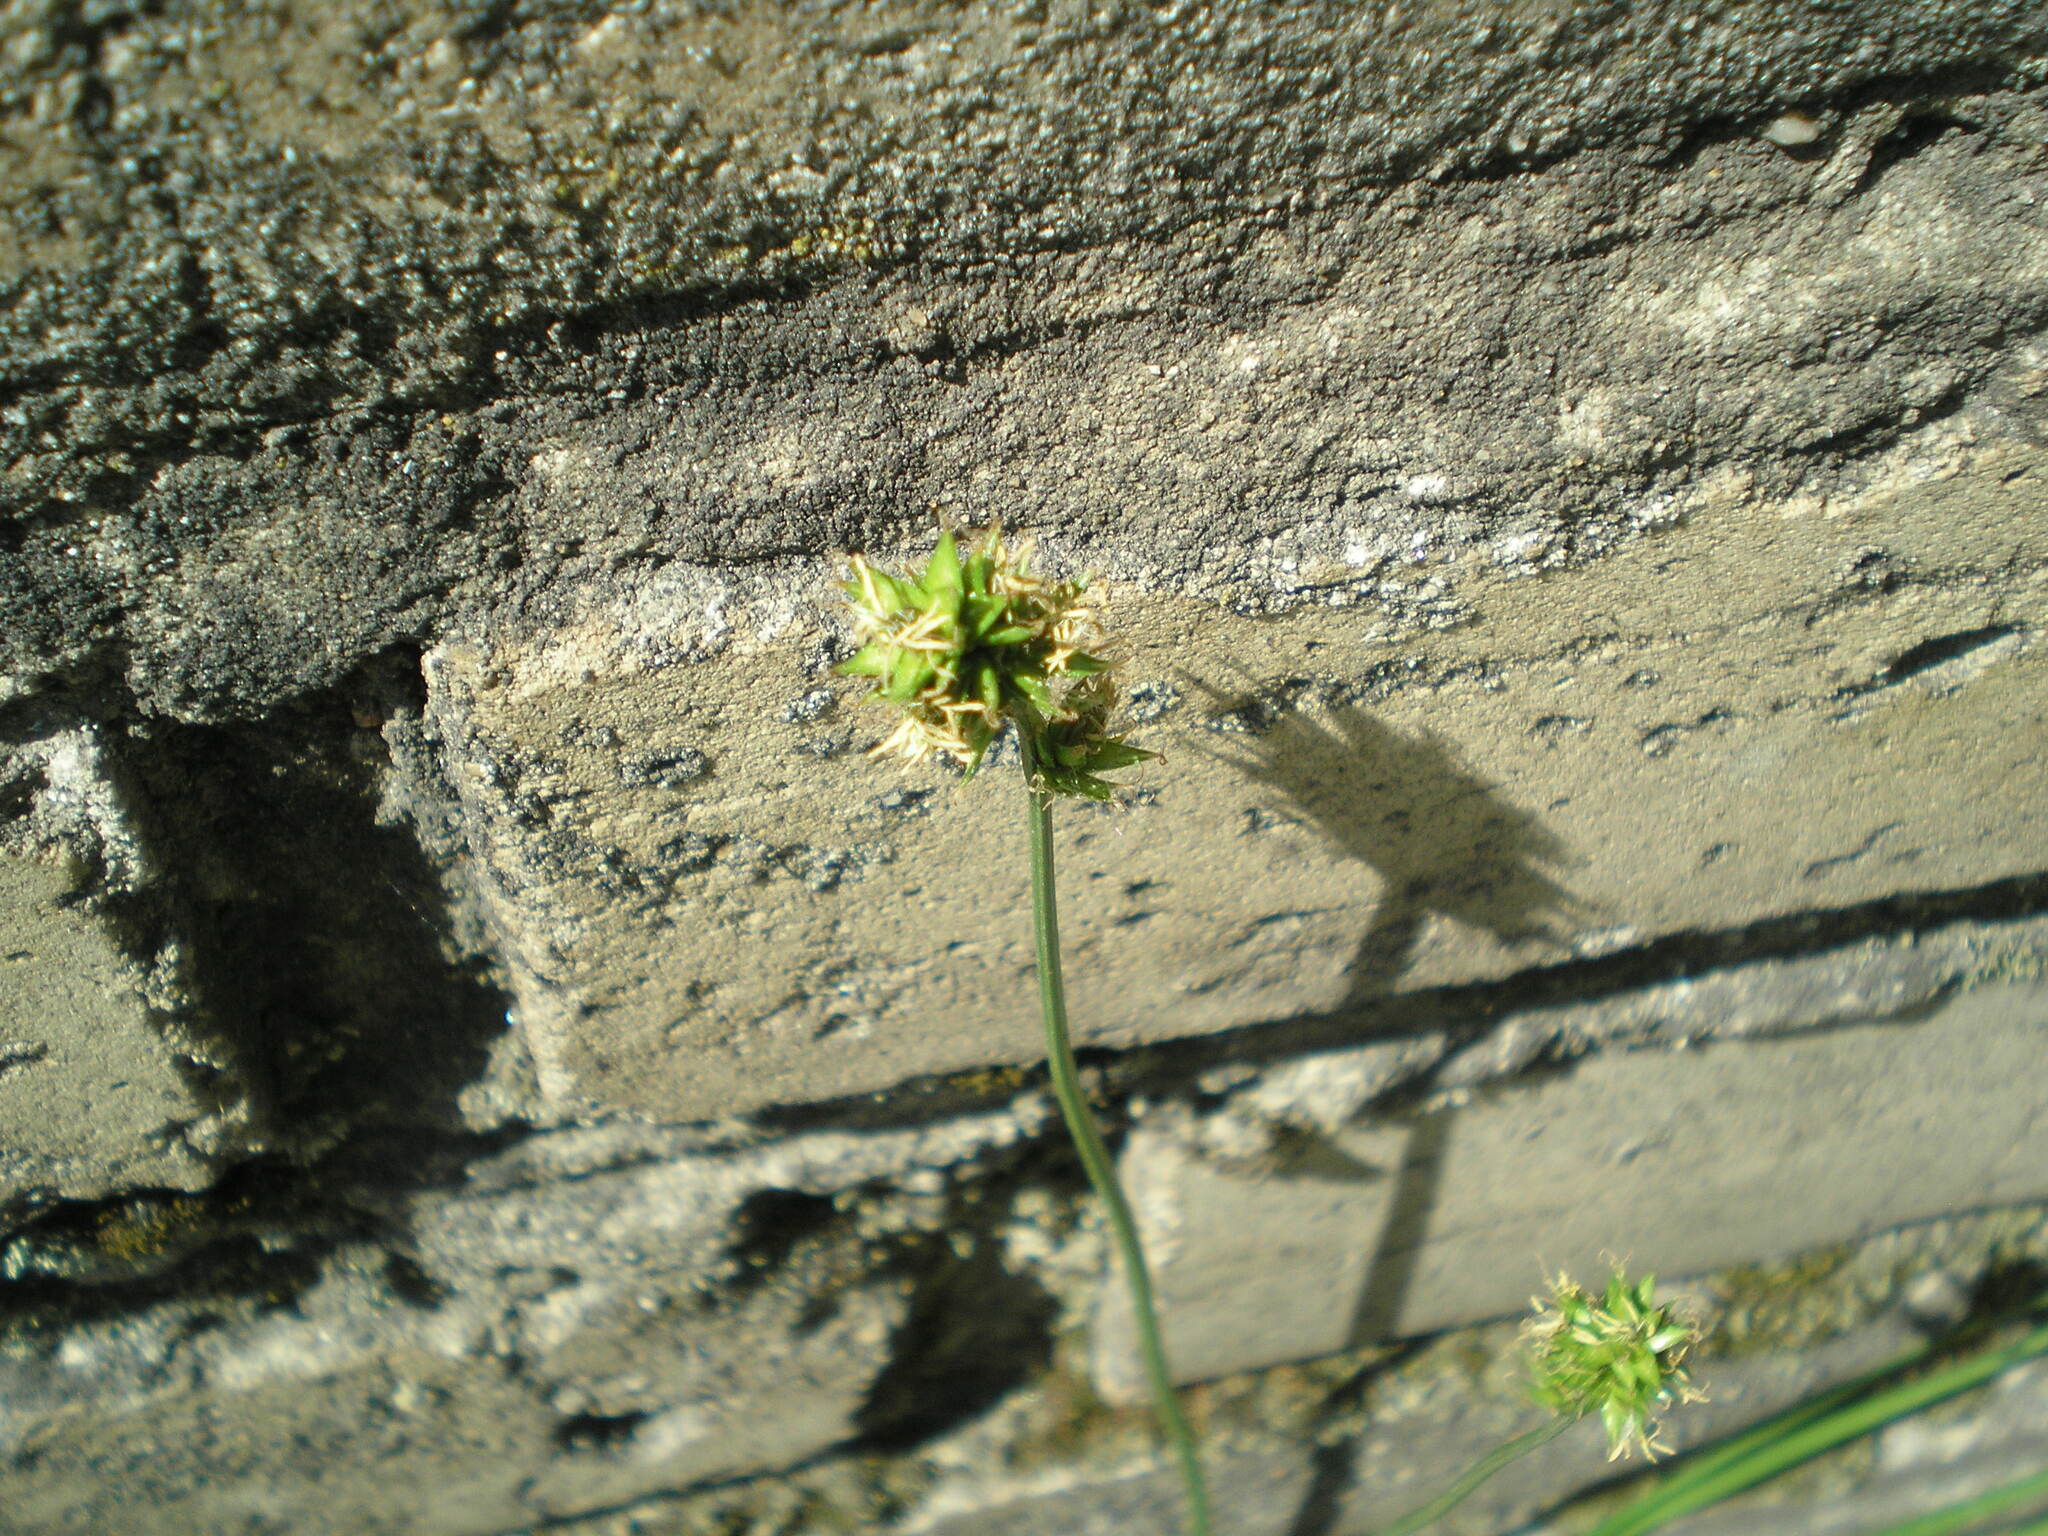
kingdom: Plantae
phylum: Tracheophyta
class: Liliopsida
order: Poales
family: Cyperaceae
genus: Carex
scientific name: Carex spicata
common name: Spiked sedge
